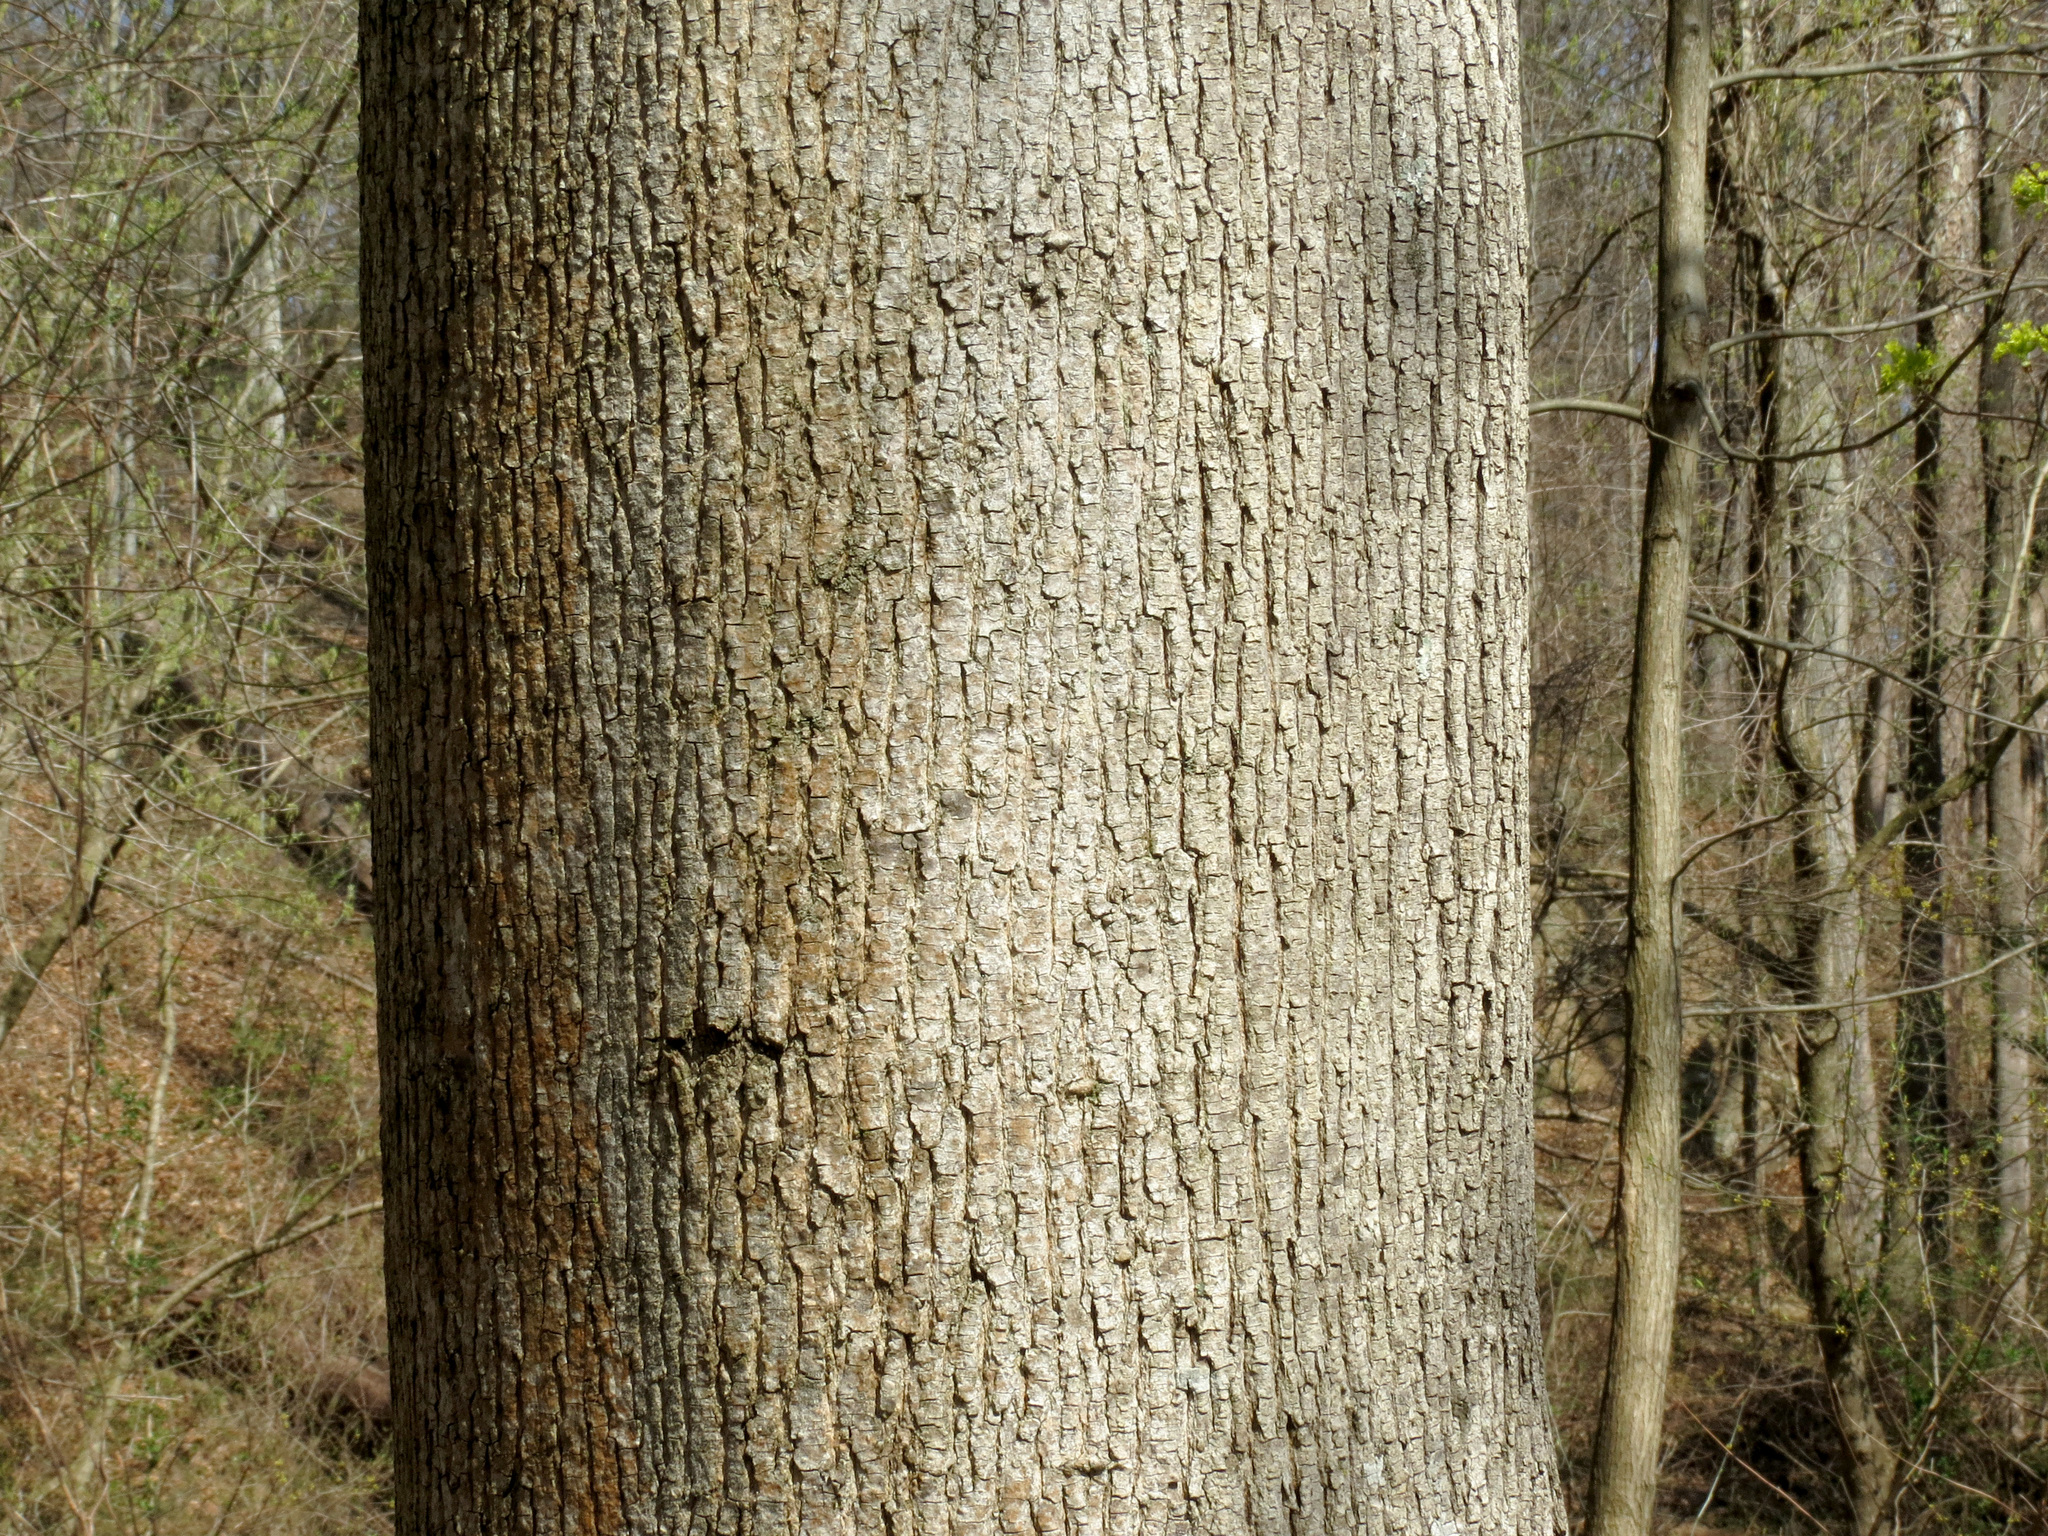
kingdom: Plantae
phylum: Tracheophyta
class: Magnoliopsida
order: Sapindales
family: Sapindaceae
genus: Acer
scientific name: Acer platanoides
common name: Norway maple
